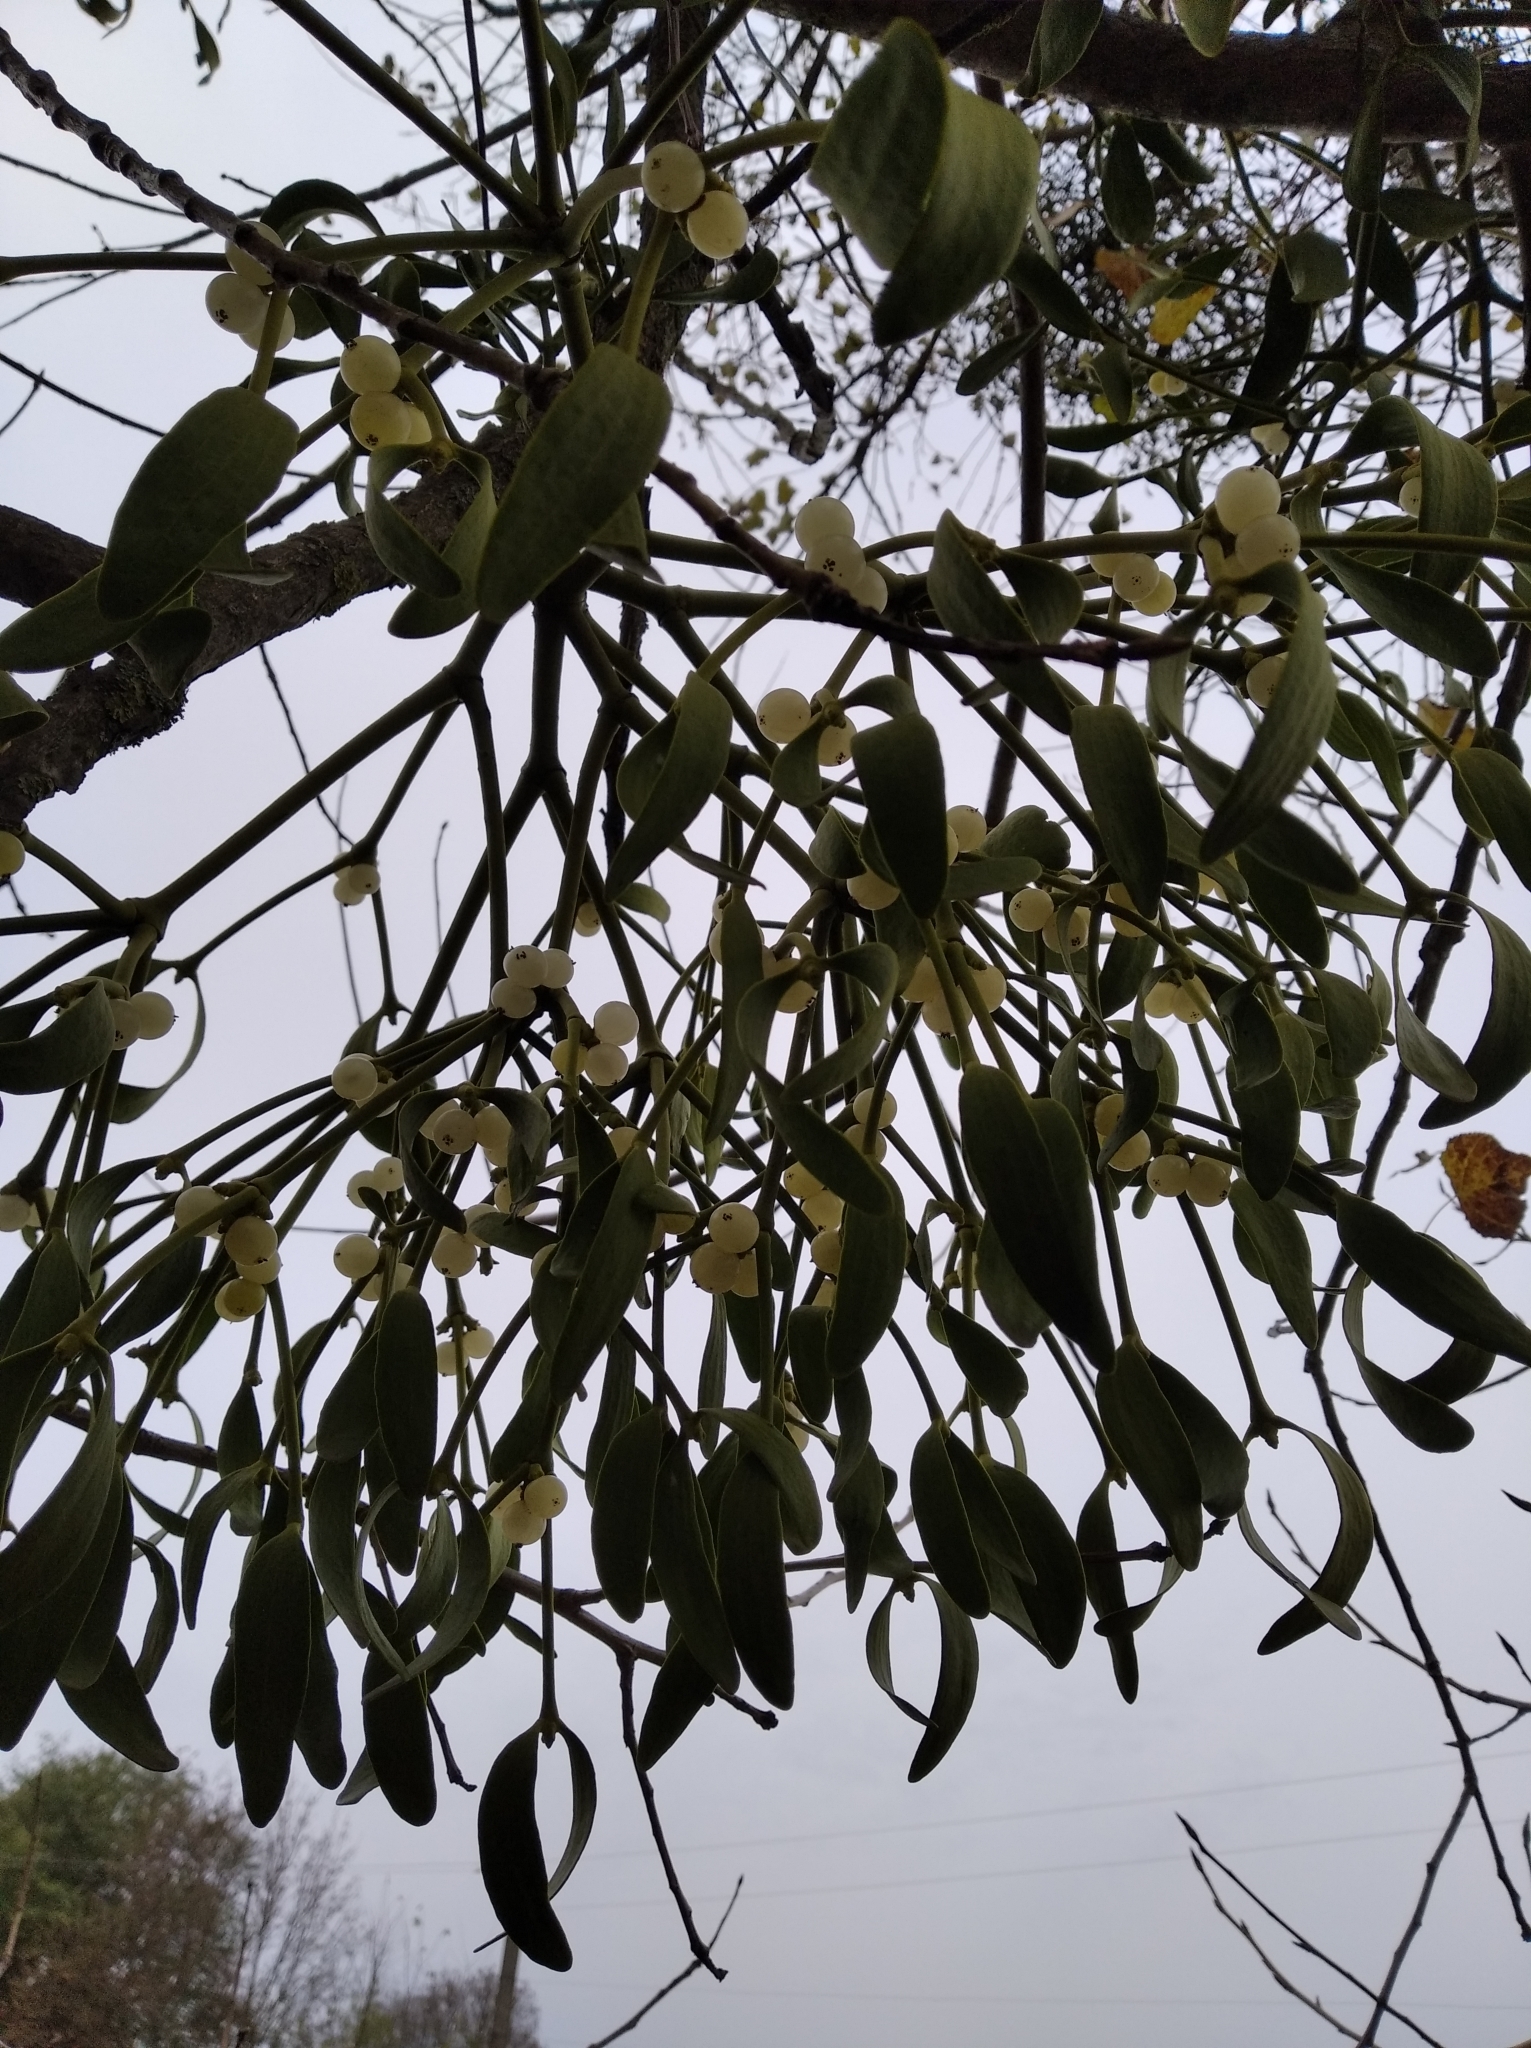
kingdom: Plantae
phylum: Tracheophyta
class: Magnoliopsida
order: Santalales
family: Viscaceae
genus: Viscum
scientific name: Viscum album
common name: Mistletoe
